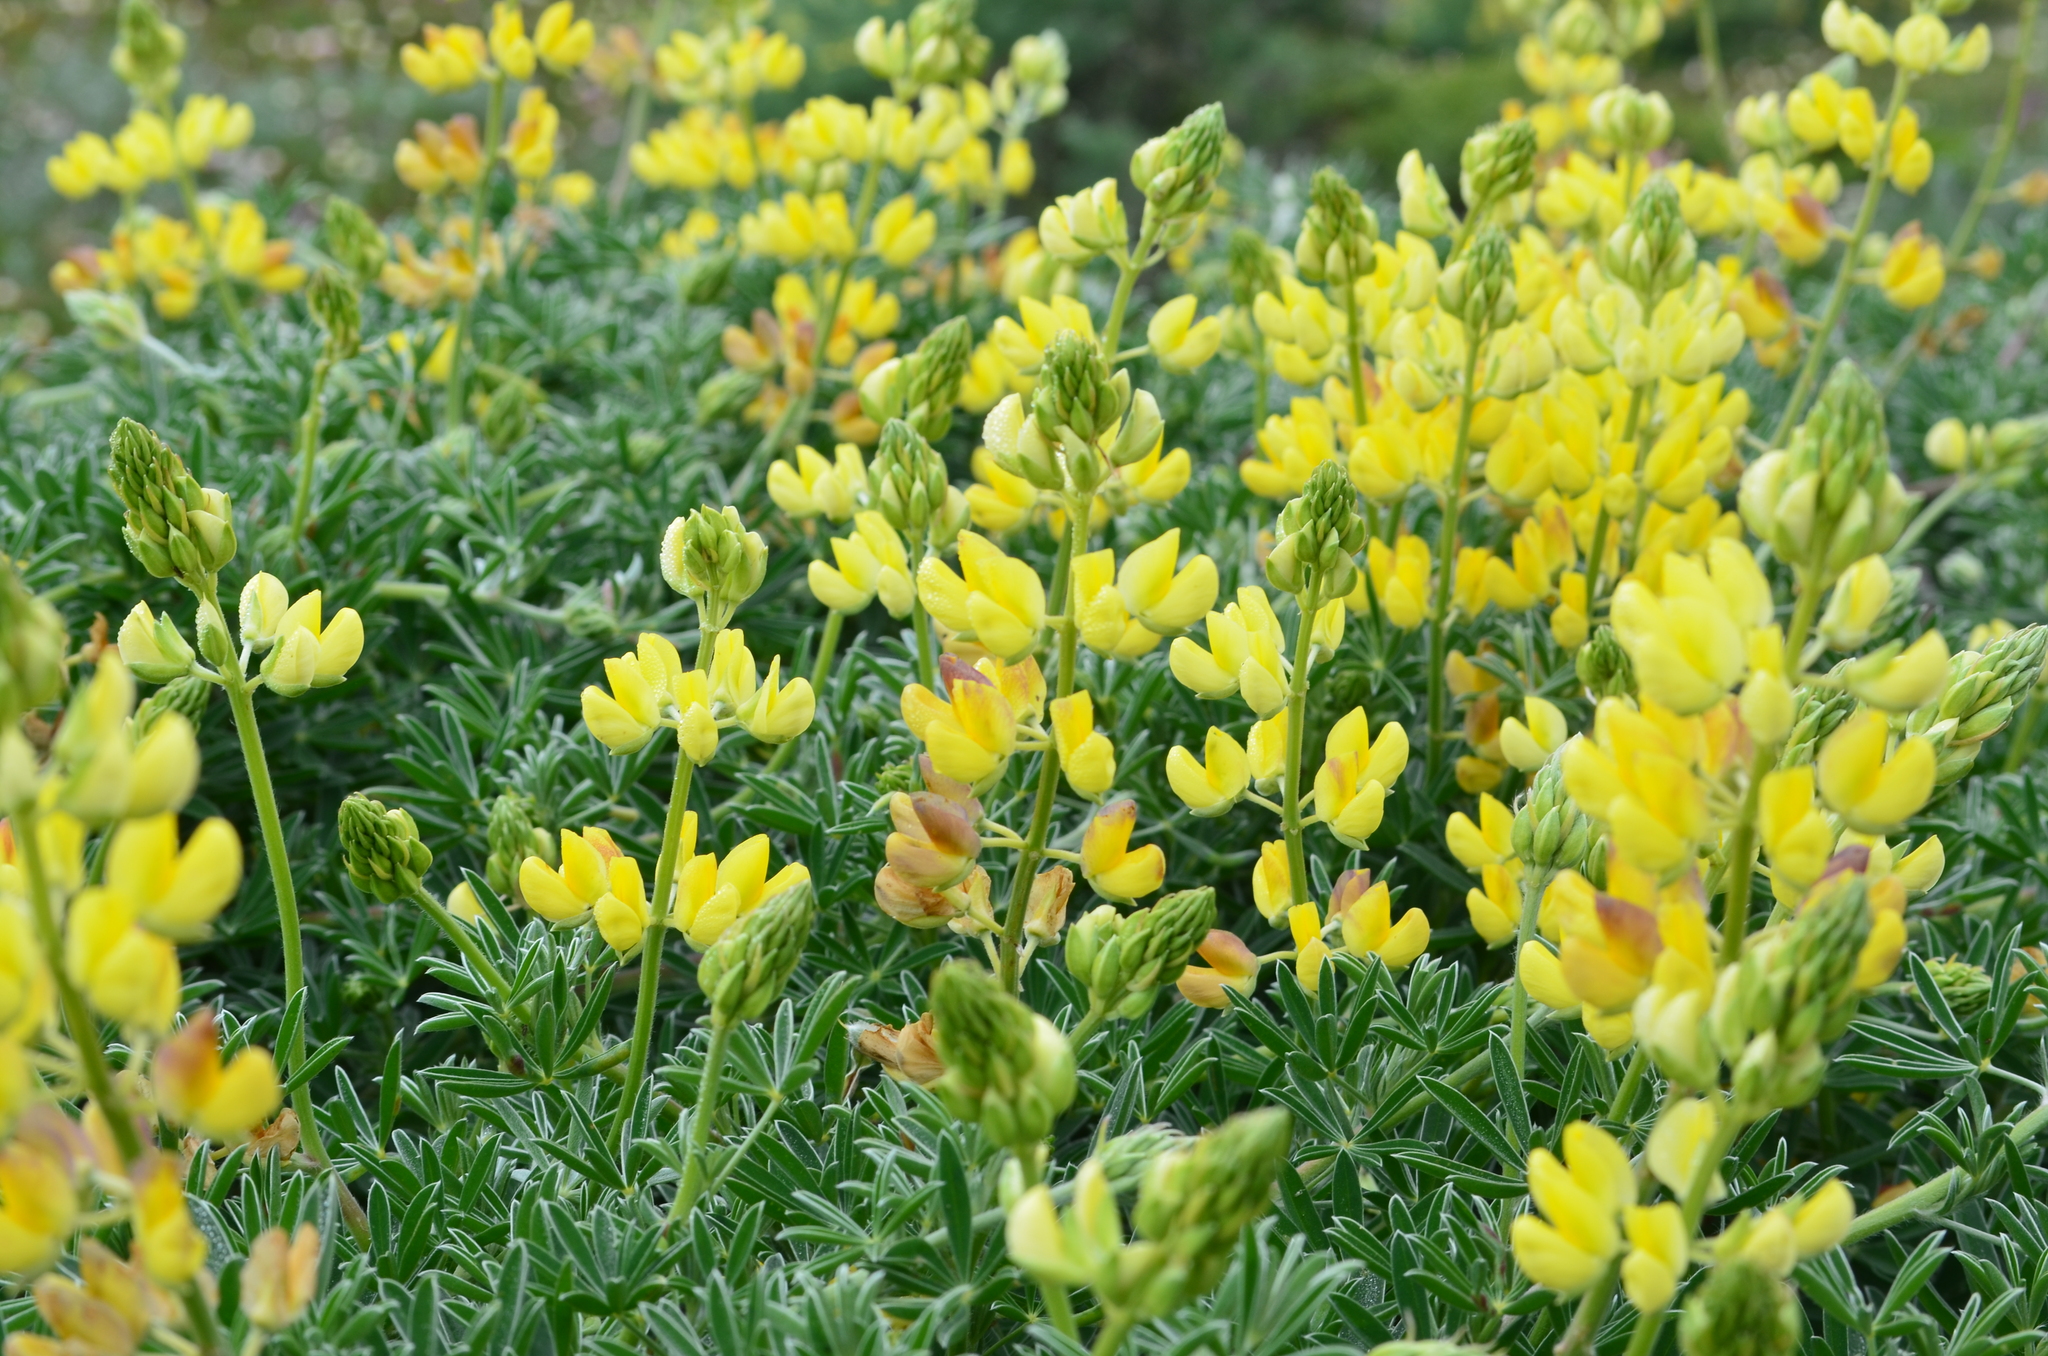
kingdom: Plantae
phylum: Tracheophyta
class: Magnoliopsida
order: Fabales
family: Fabaceae
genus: Lupinus
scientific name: Lupinus arboreus
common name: Yellow bush lupine
